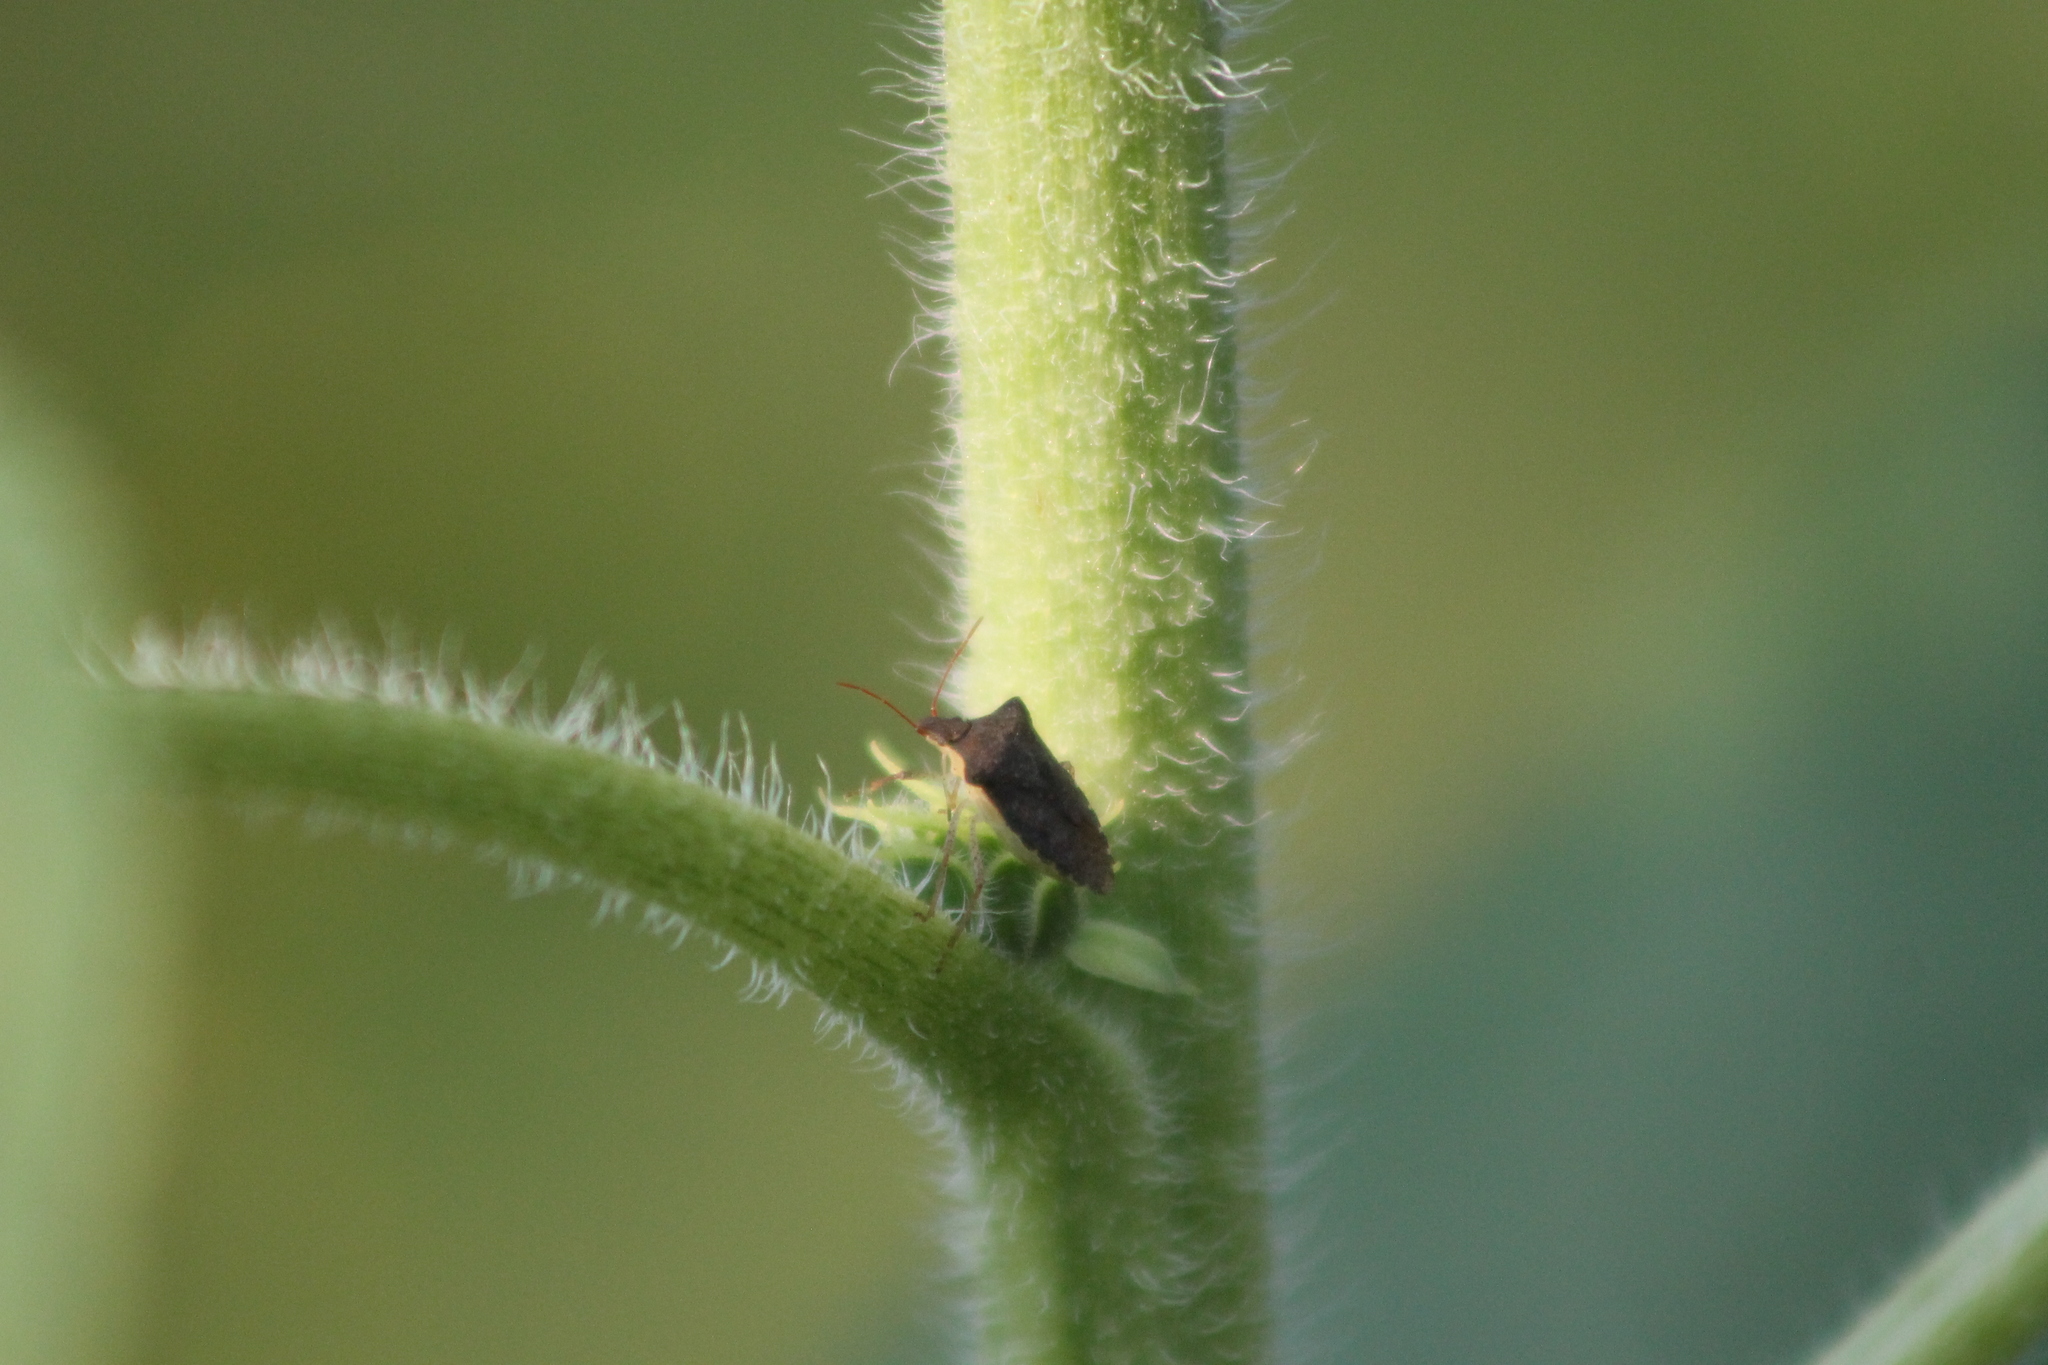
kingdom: Animalia
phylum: Arthropoda
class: Insecta
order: Hemiptera
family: Pentatomidae
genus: Euschistus
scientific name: Euschistus tristigmus
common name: Dusky stink bug
